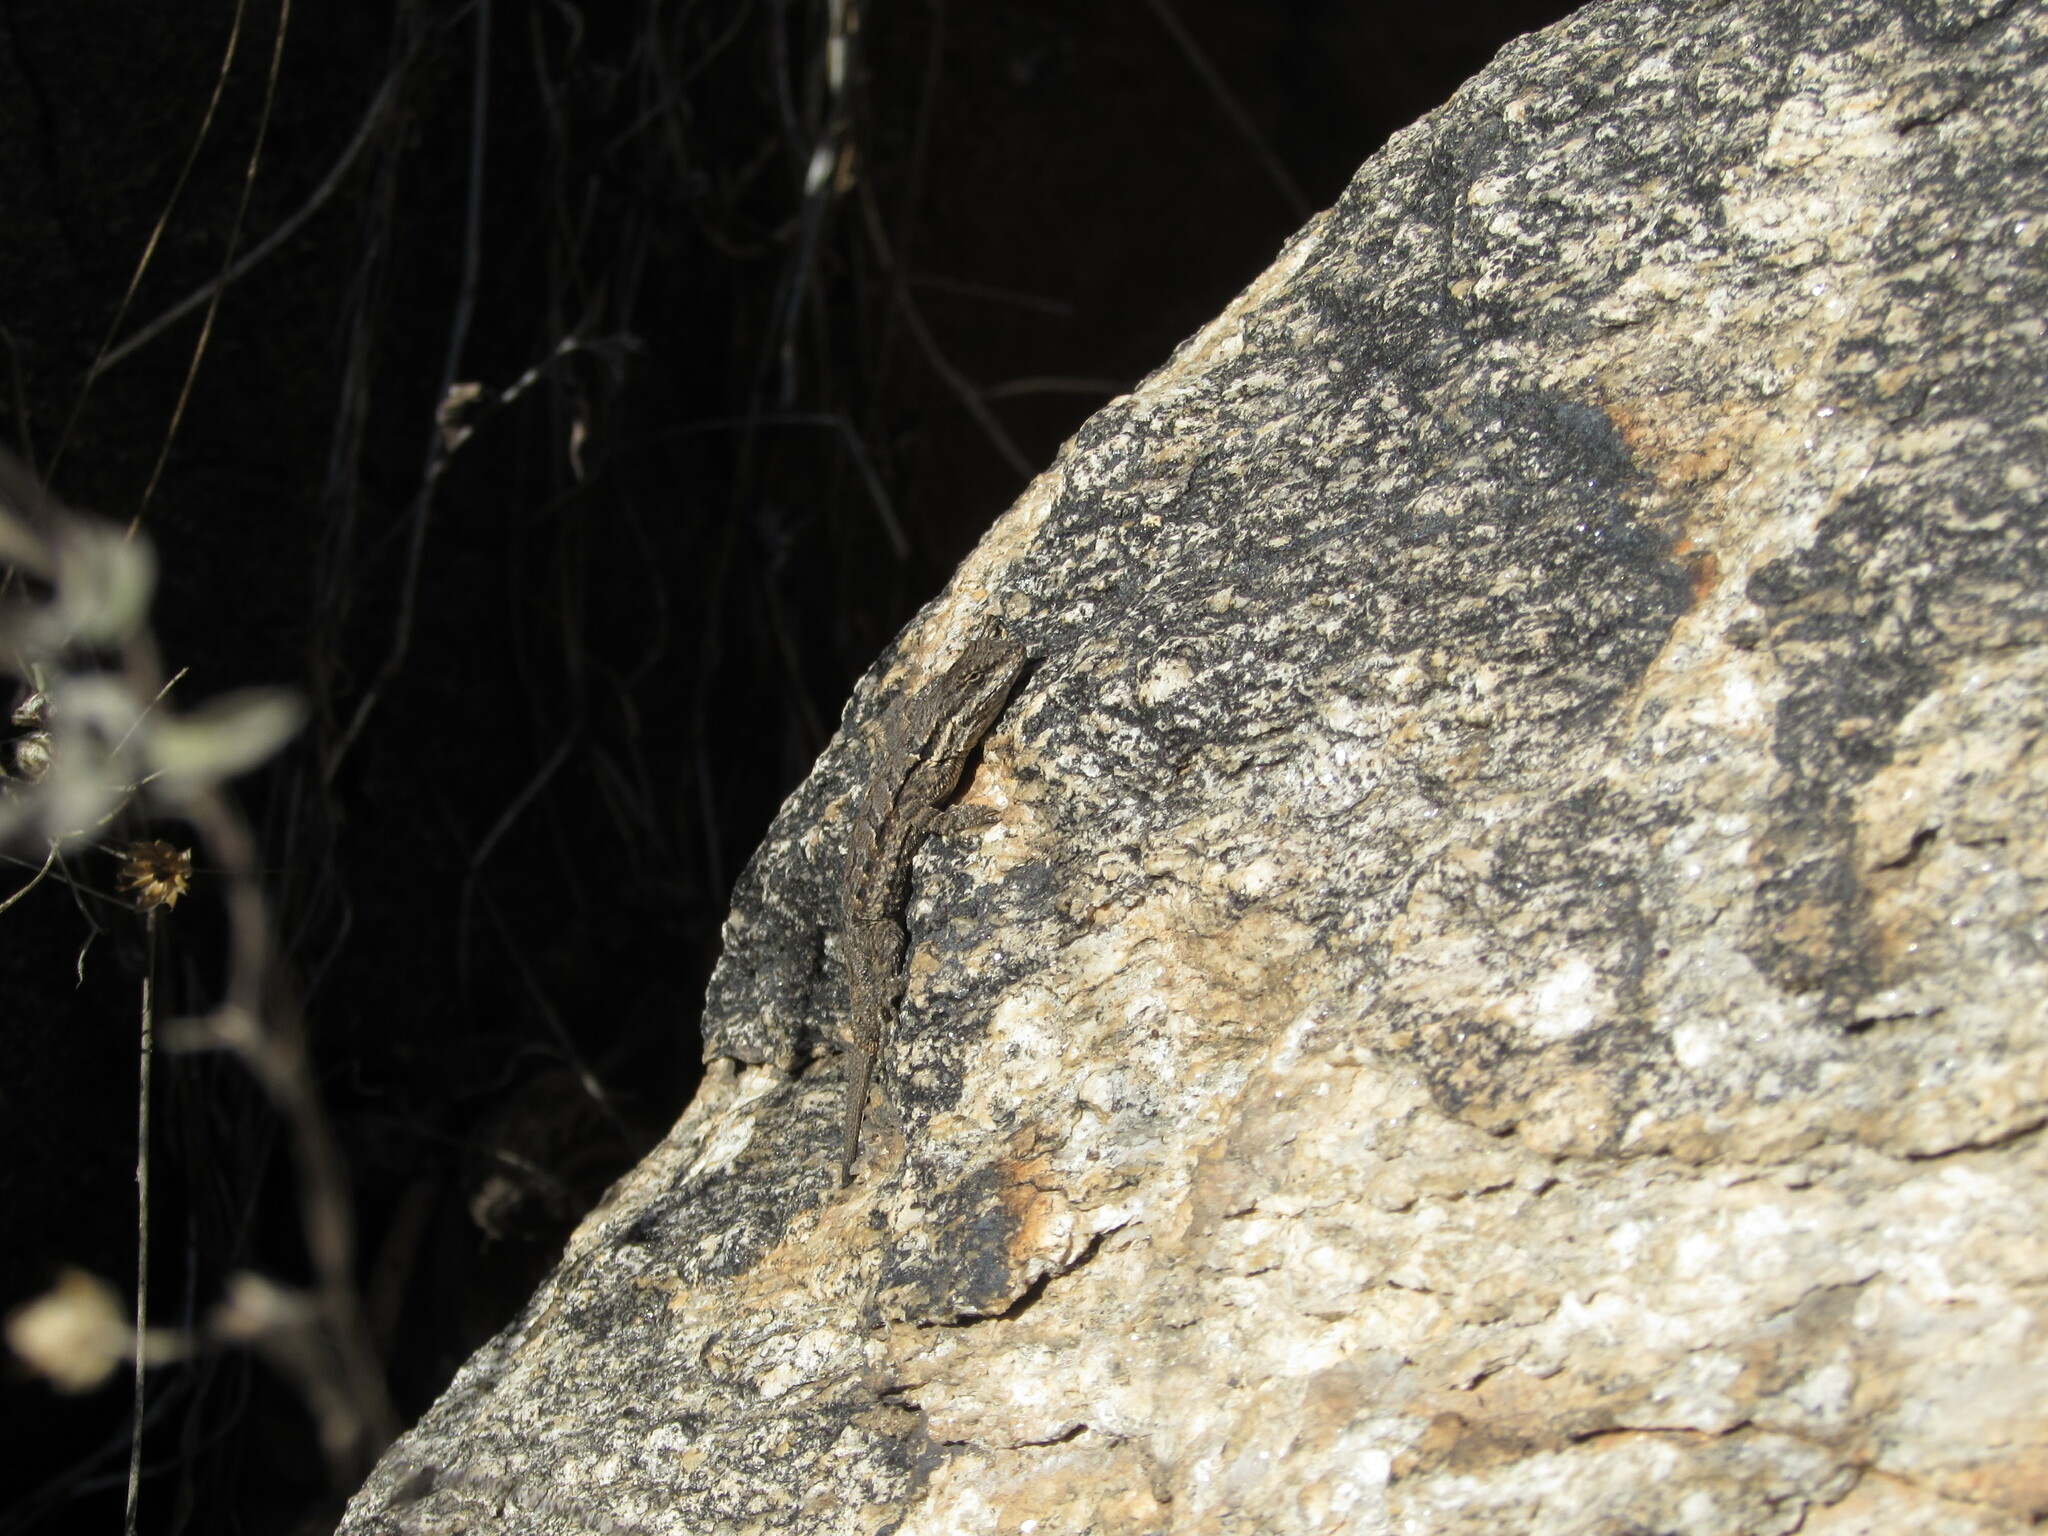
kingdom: Animalia
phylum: Chordata
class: Squamata
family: Phrynosomatidae
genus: Urosaurus
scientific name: Urosaurus ornatus
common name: Ornate tree lizard
